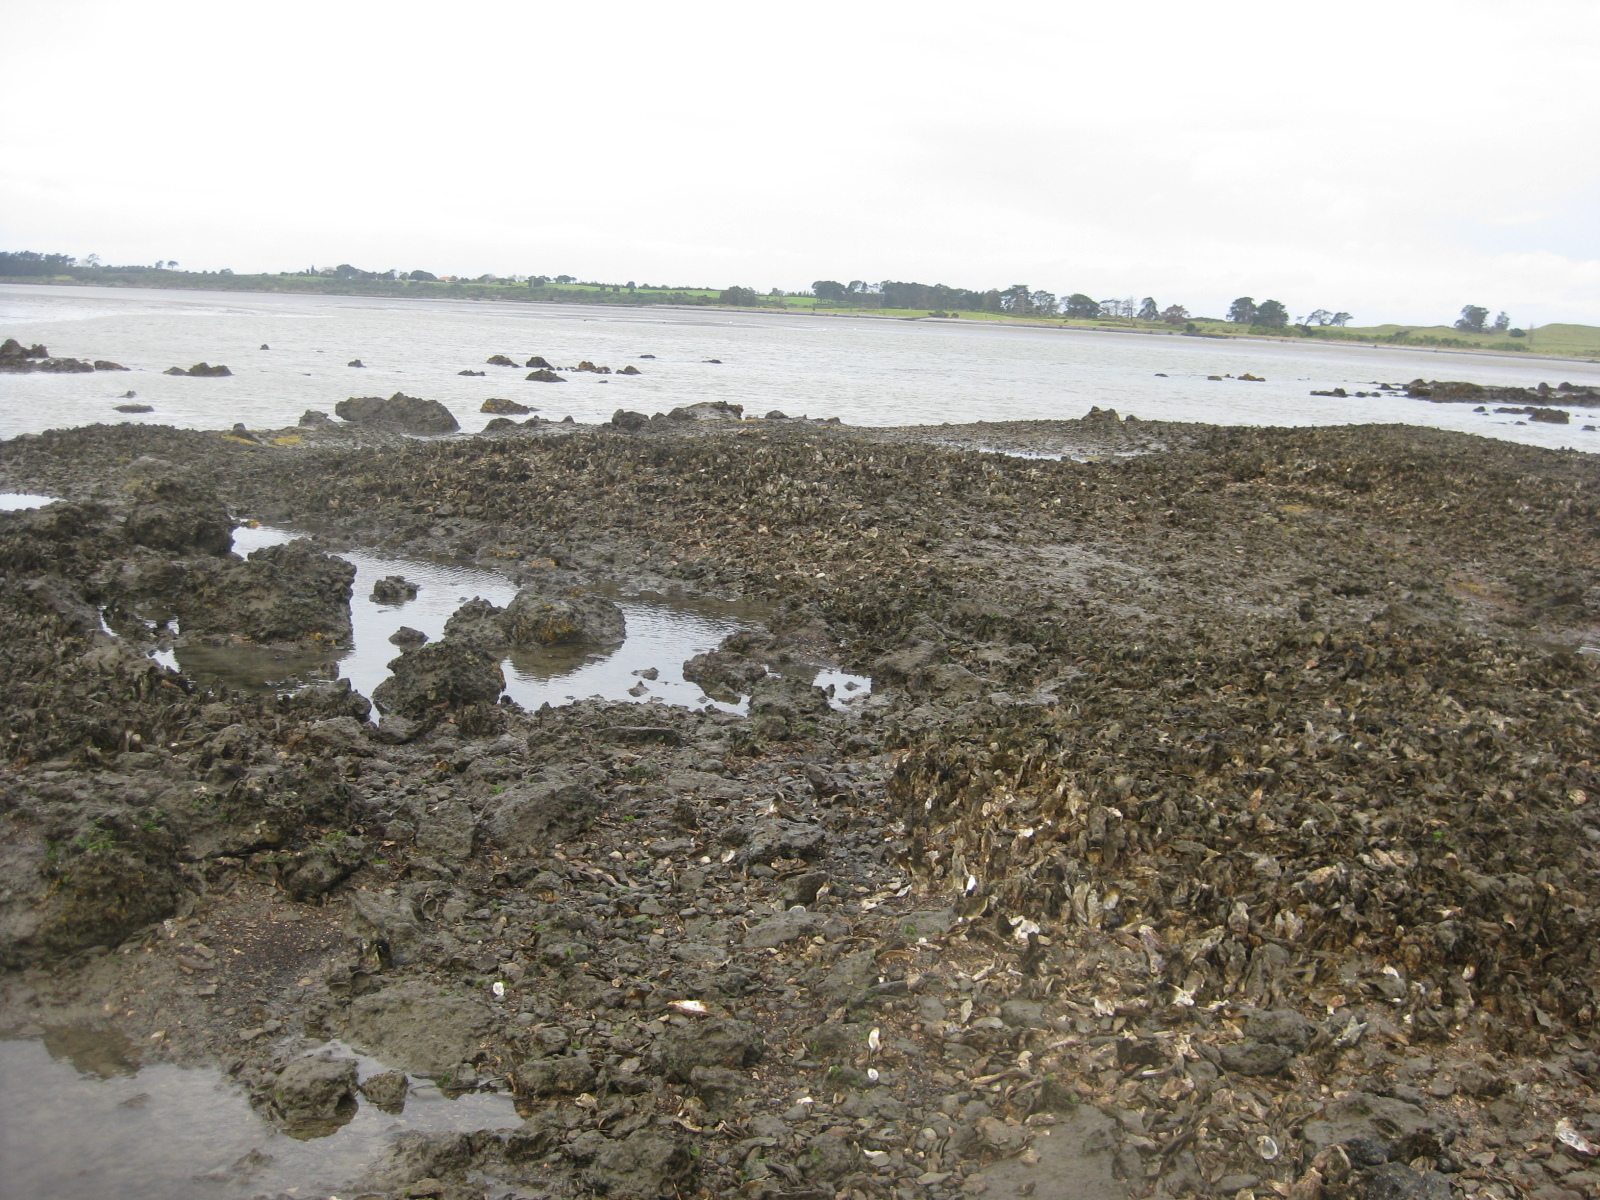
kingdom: Animalia
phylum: Mollusca
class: Bivalvia
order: Ostreida
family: Ostreidae
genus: Magallana
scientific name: Magallana gigas
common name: Pacific oyster
